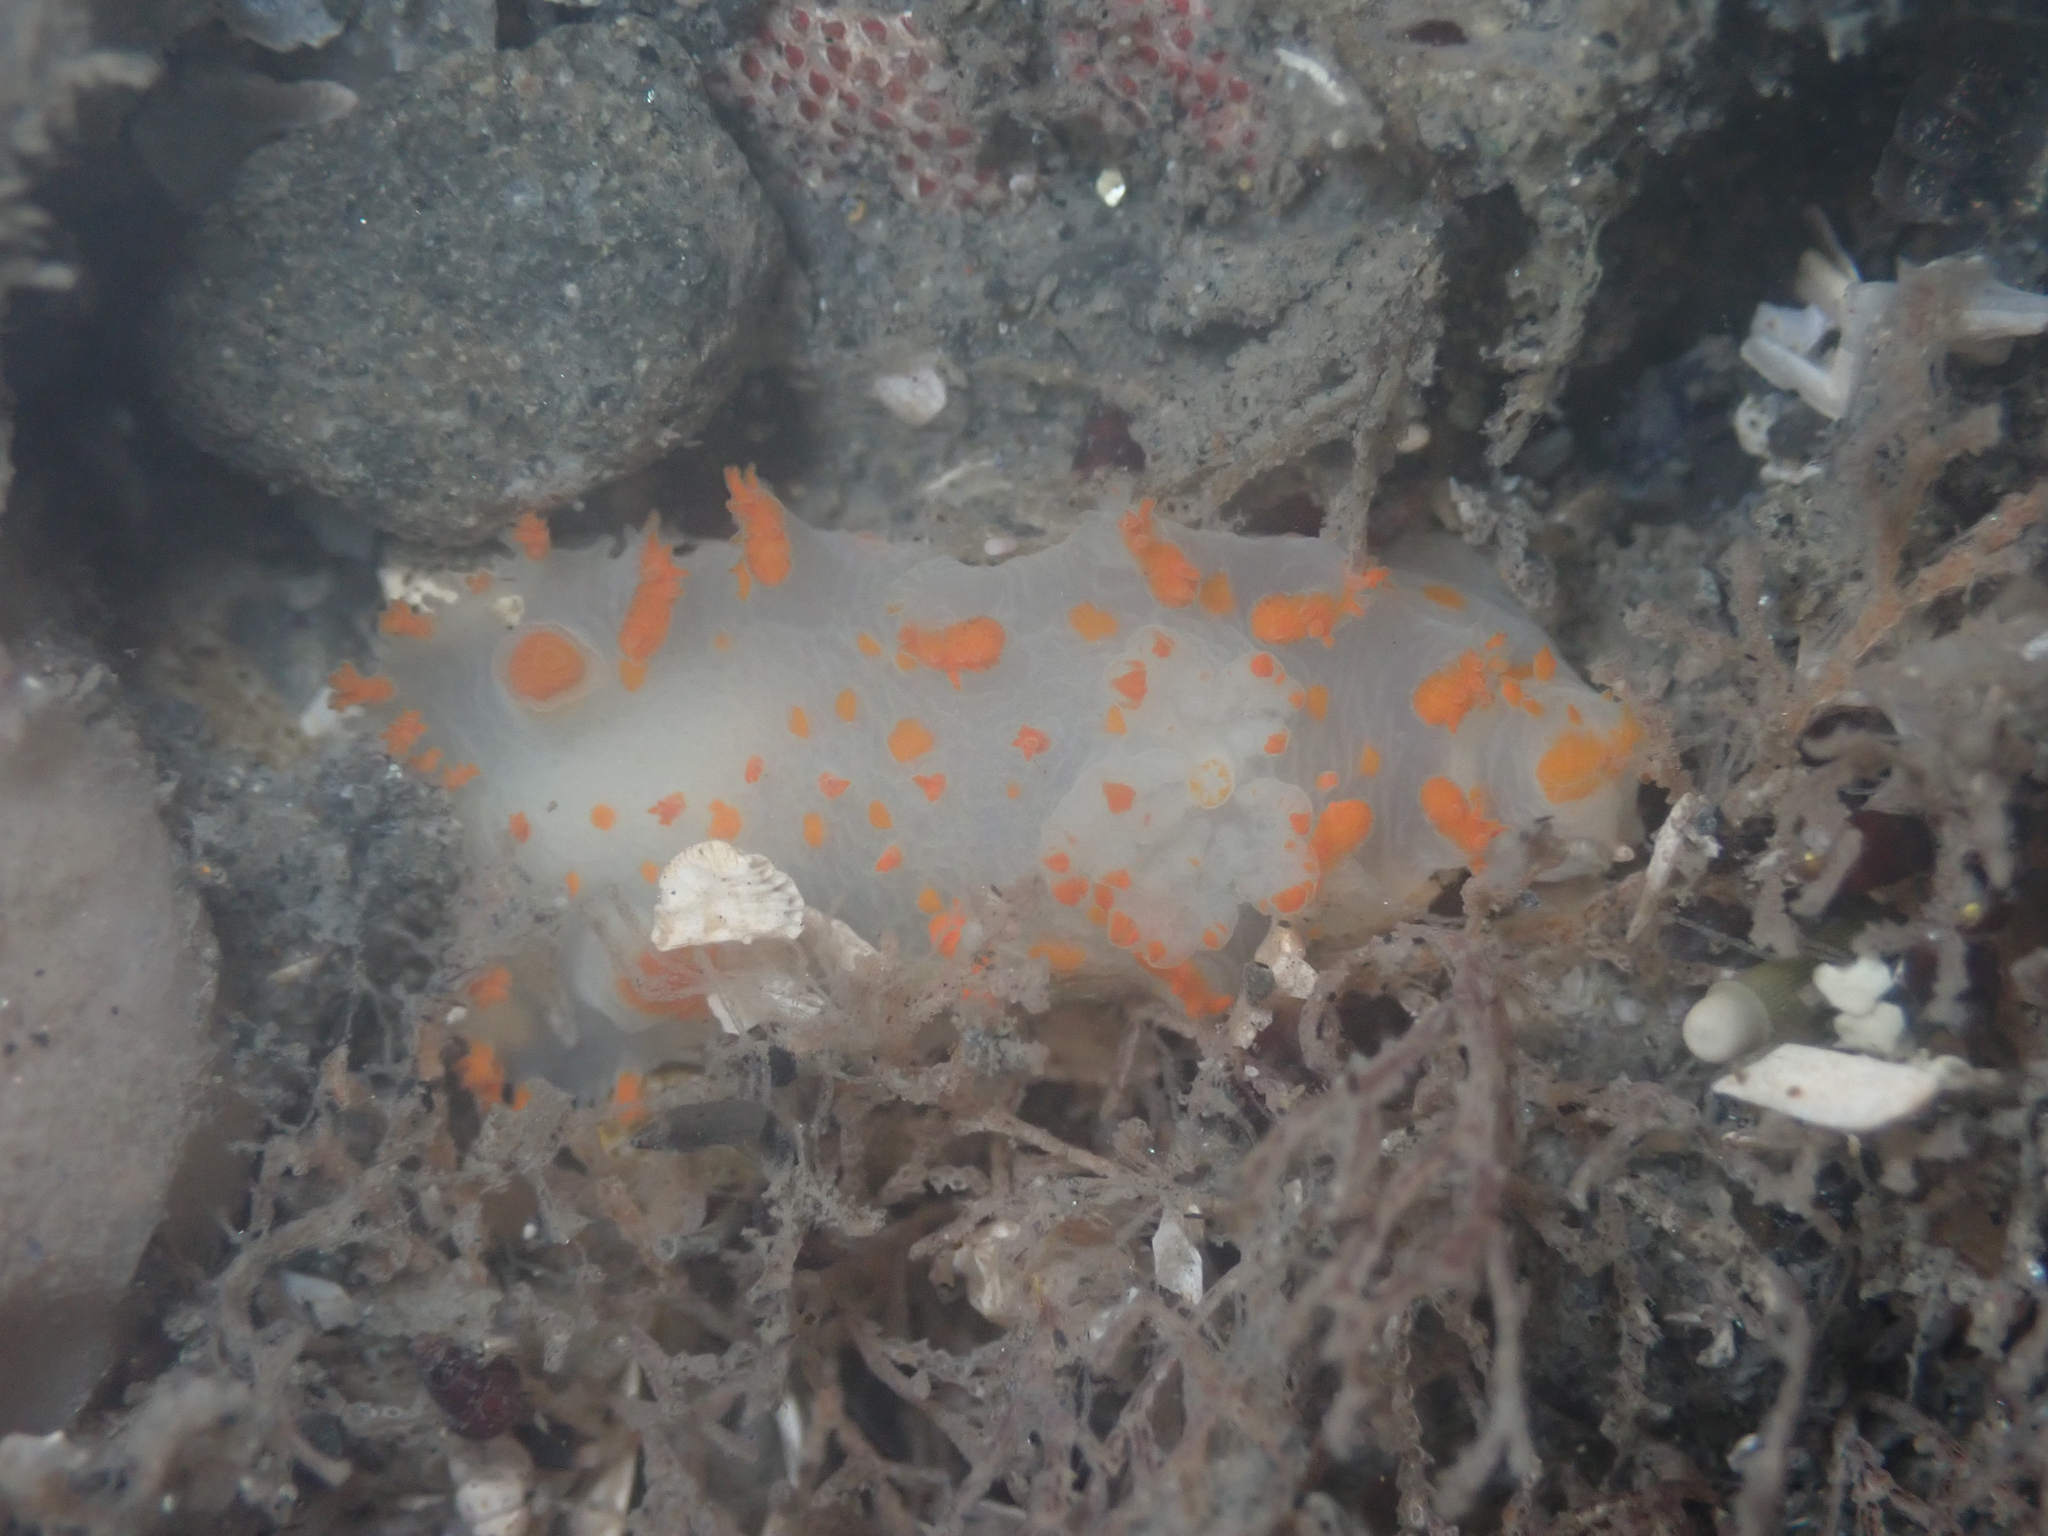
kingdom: Animalia
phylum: Mollusca
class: Gastropoda
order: Nudibranchia
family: Polyceridae
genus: Triopha
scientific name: Triopha modesta
